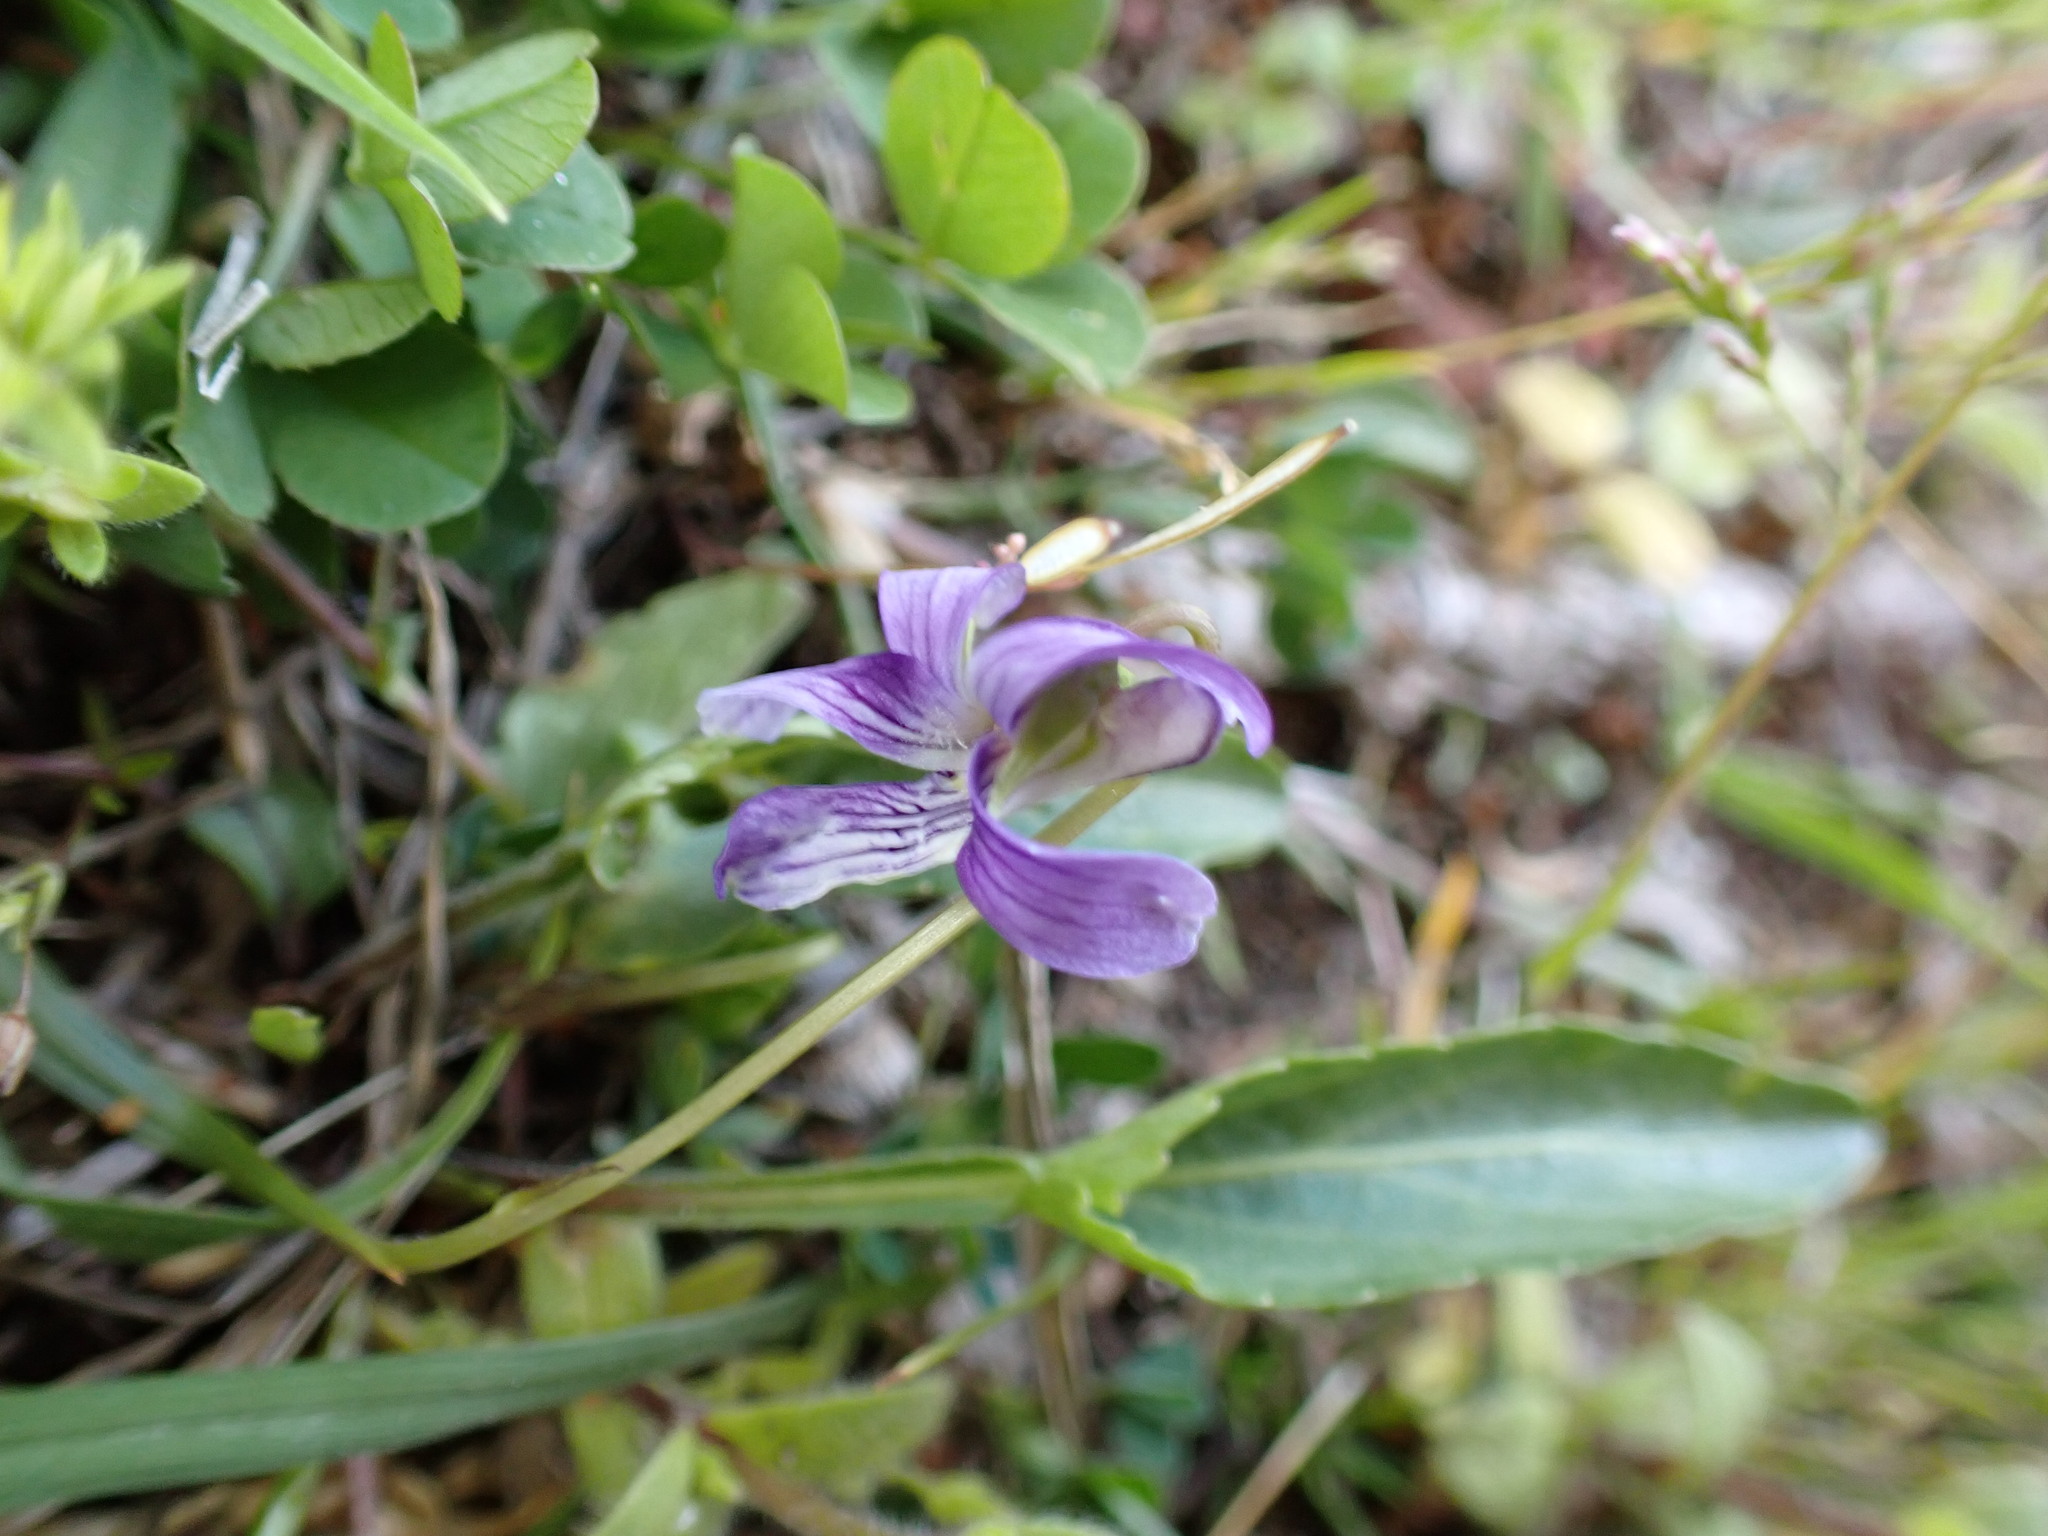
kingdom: Plantae
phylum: Tracheophyta
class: Magnoliopsida
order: Malpighiales
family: Violaceae
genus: Viola
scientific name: Viola mandshurica
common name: Manchuria violet
